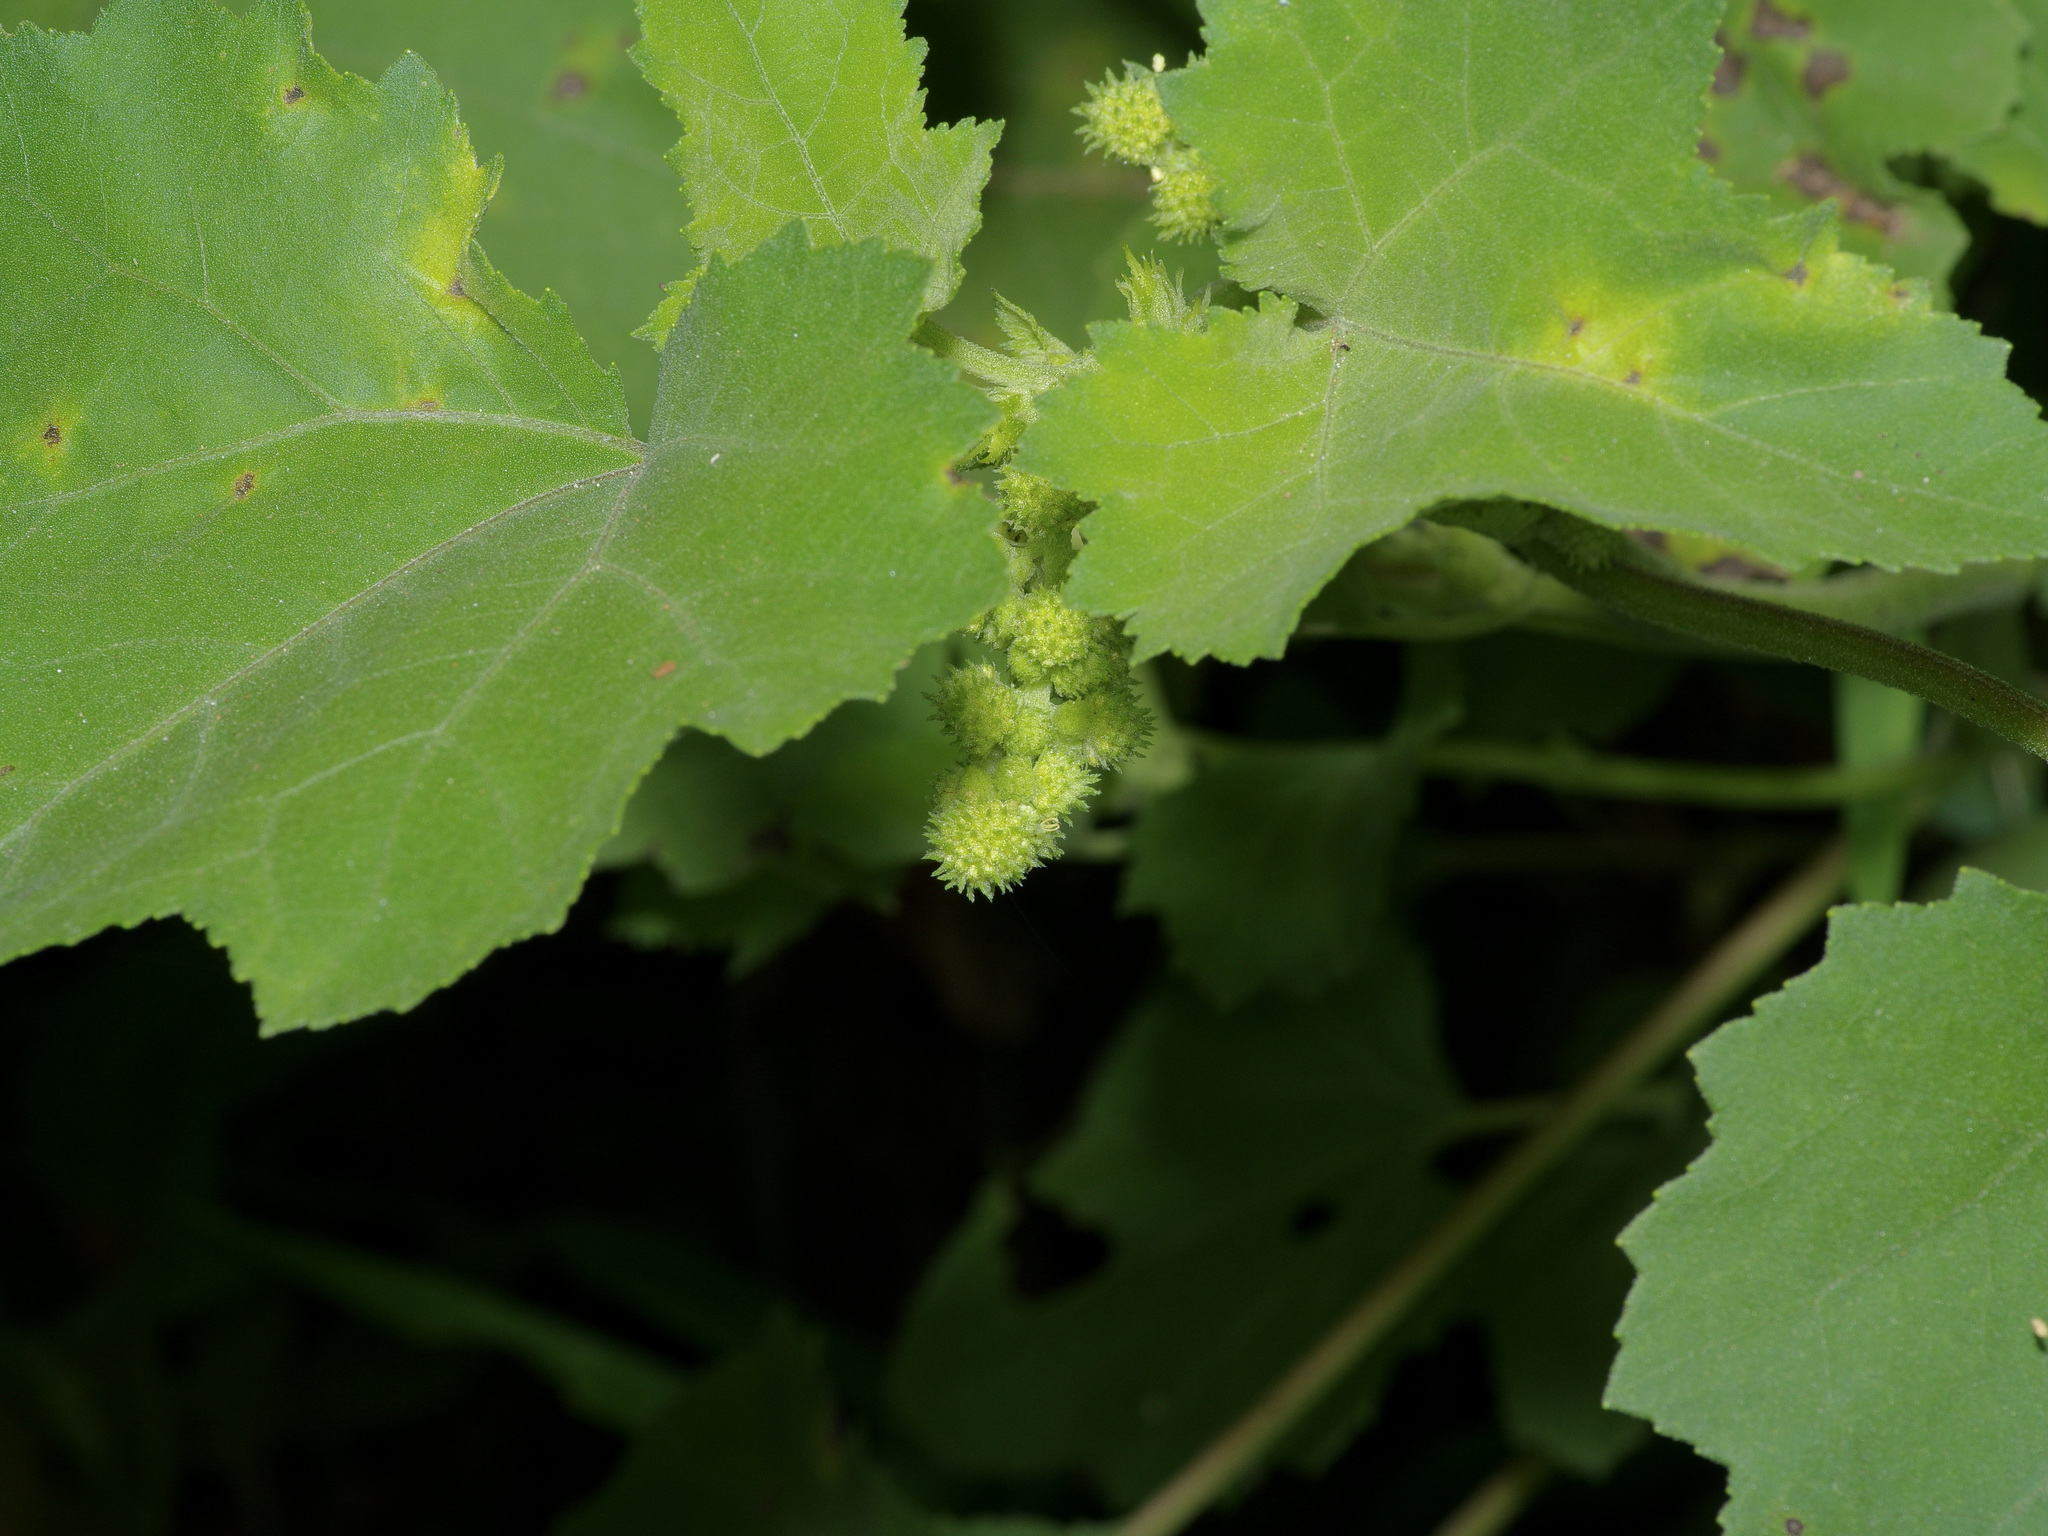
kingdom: Plantae
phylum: Tracheophyta
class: Magnoliopsida
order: Asterales
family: Asteraceae
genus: Xanthium
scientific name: Xanthium strumarium
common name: Rough cocklebur
